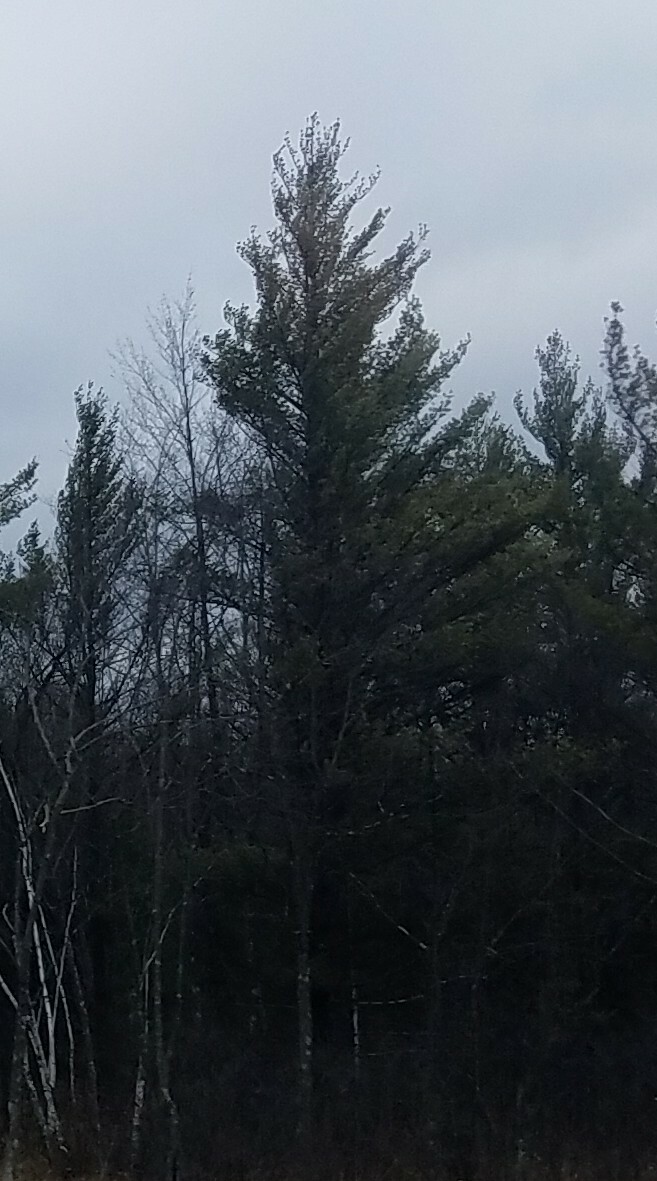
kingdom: Plantae
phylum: Tracheophyta
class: Pinopsida
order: Pinales
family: Pinaceae
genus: Pinus
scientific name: Pinus strobus
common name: Weymouth pine
